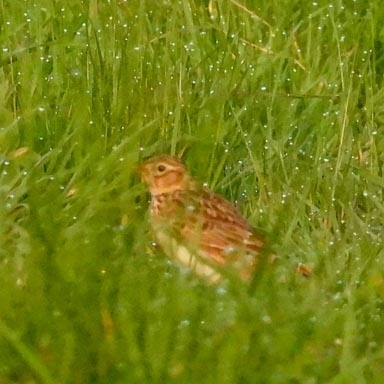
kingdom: Animalia
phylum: Chordata
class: Aves
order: Passeriformes
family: Alaudidae
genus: Alauda
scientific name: Alauda arvensis
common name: Eurasian skylark
